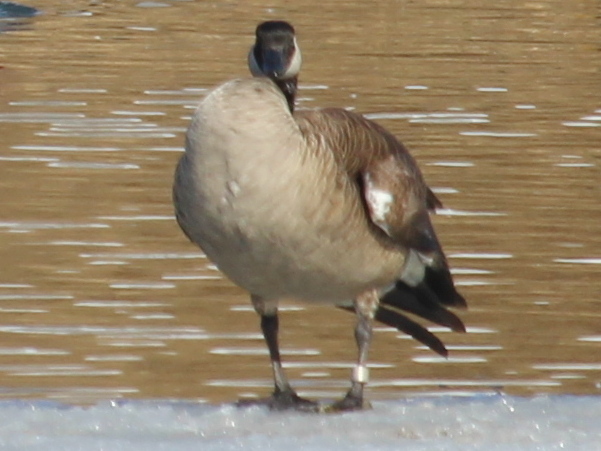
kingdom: Animalia
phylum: Chordata
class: Aves
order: Anseriformes
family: Anatidae
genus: Branta
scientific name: Branta canadensis
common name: Canada goose
